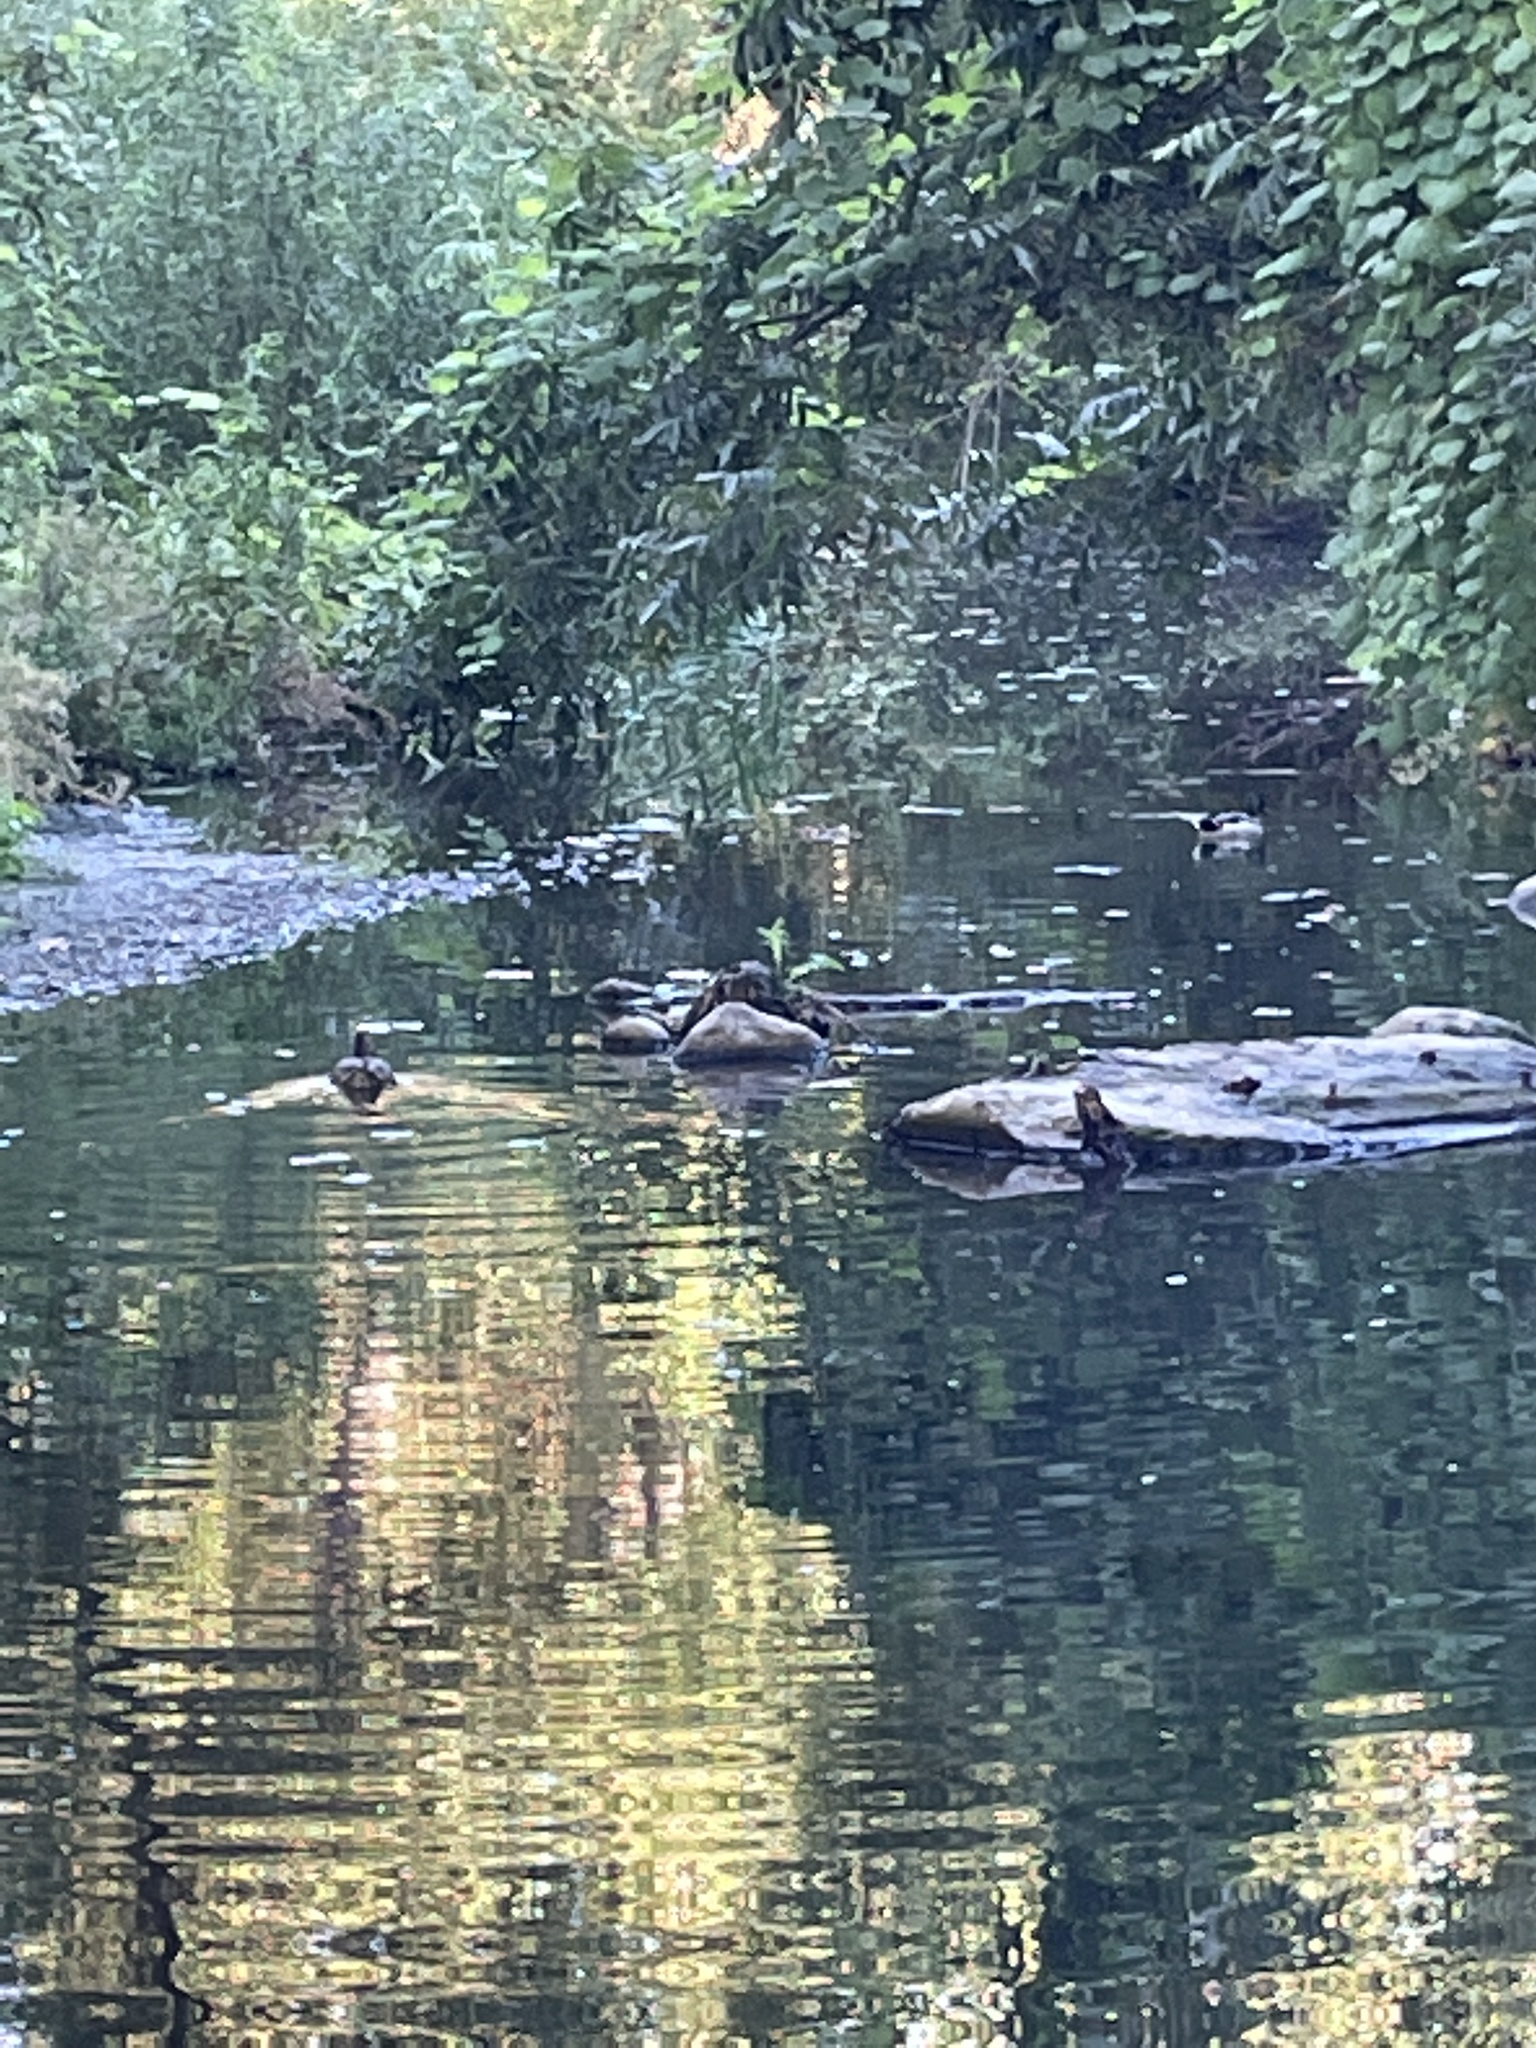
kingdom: Animalia
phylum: Chordata
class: Aves
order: Anseriformes
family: Anatidae
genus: Anas
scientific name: Anas platyrhynchos
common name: Mallard
